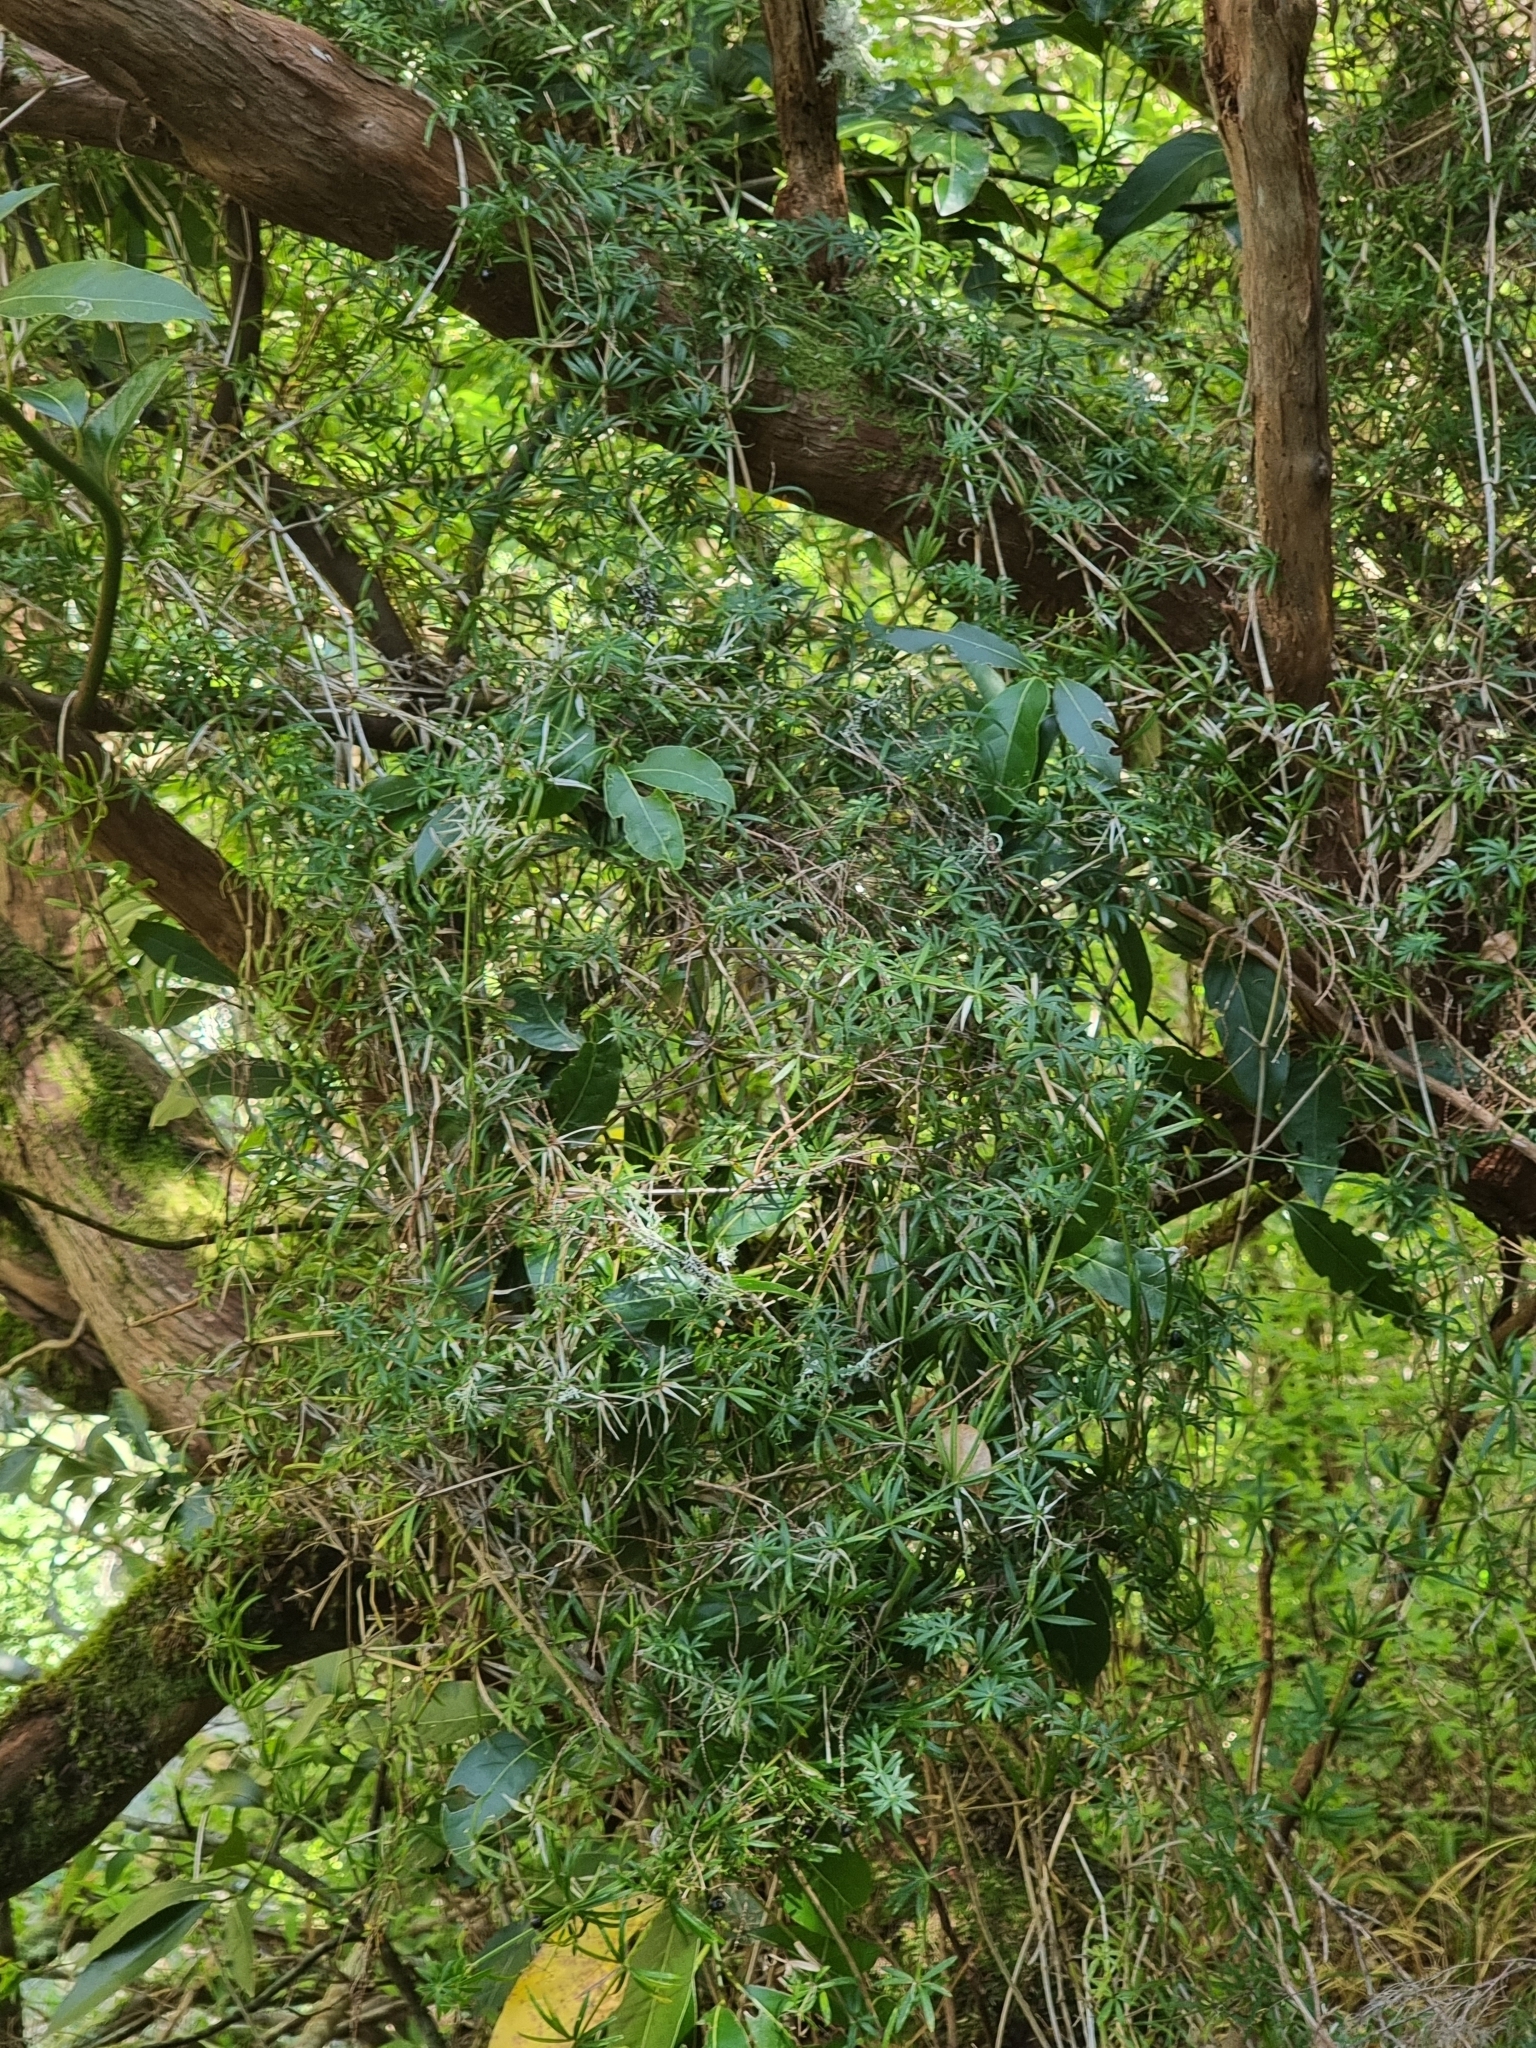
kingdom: Plantae
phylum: Tracheophyta
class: Magnoliopsida
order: Gentianales
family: Rubiaceae
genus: Rubia
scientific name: Rubia occidens
